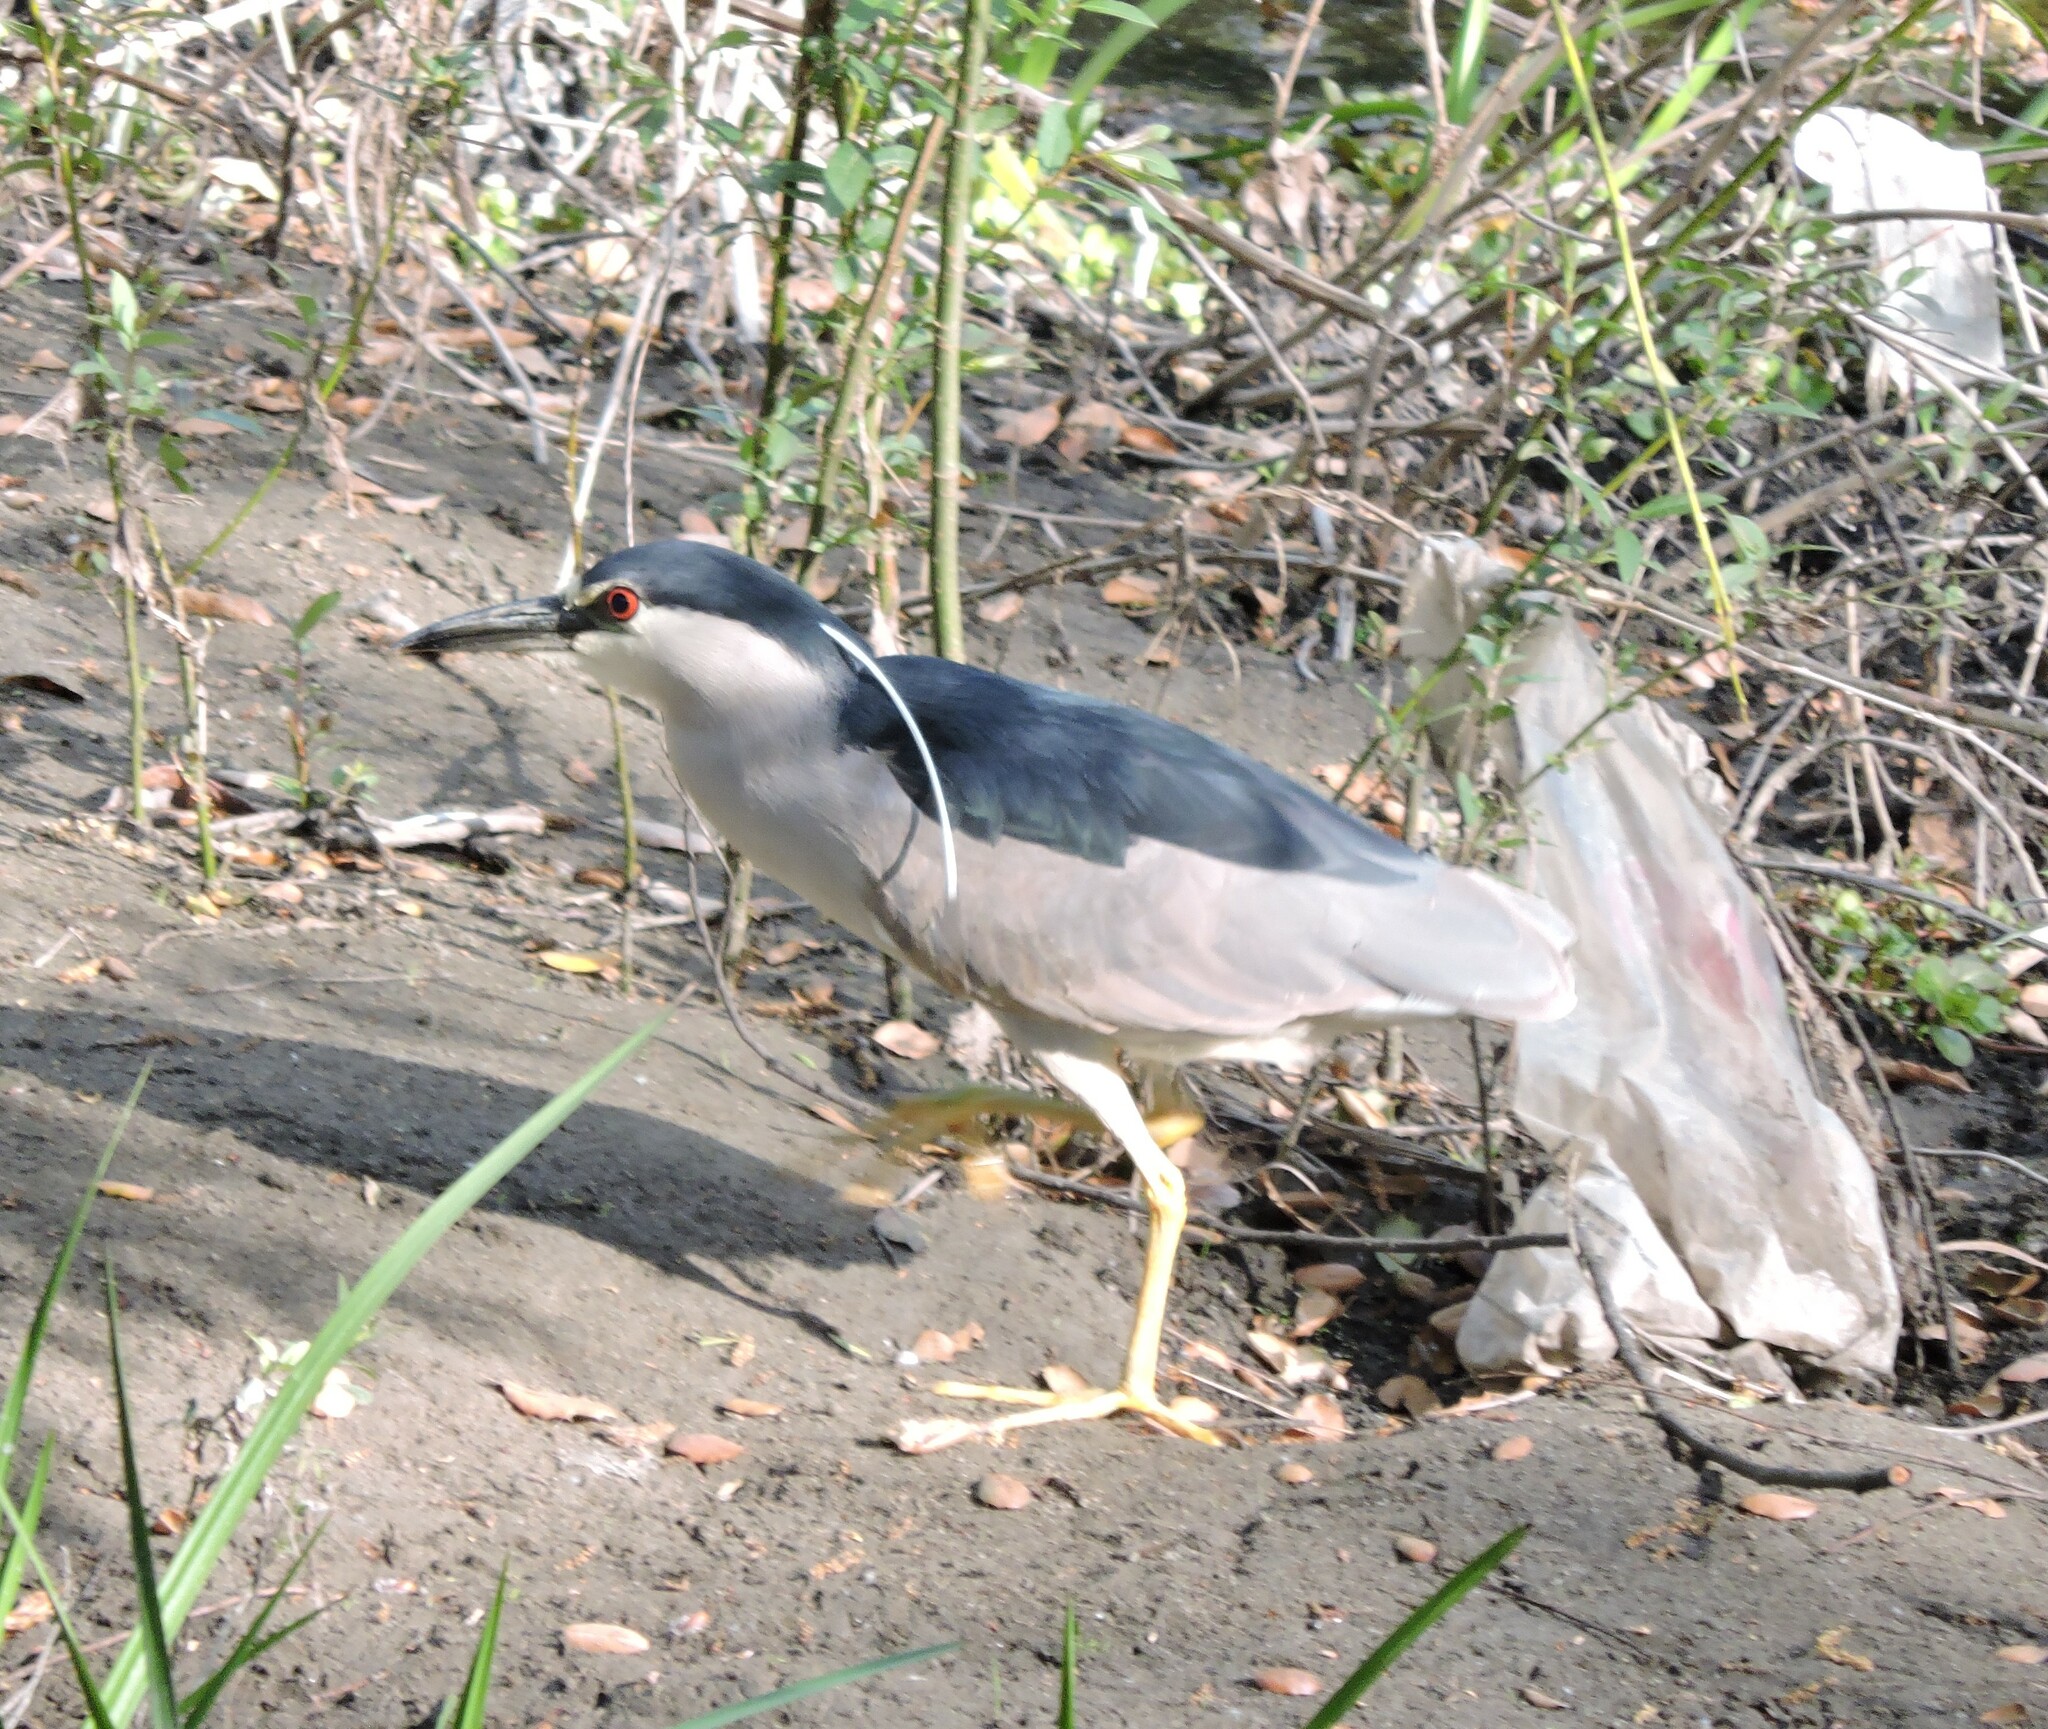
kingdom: Animalia
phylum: Chordata
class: Aves
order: Pelecaniformes
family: Ardeidae
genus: Nycticorax
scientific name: Nycticorax nycticorax
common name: Black-crowned night heron
